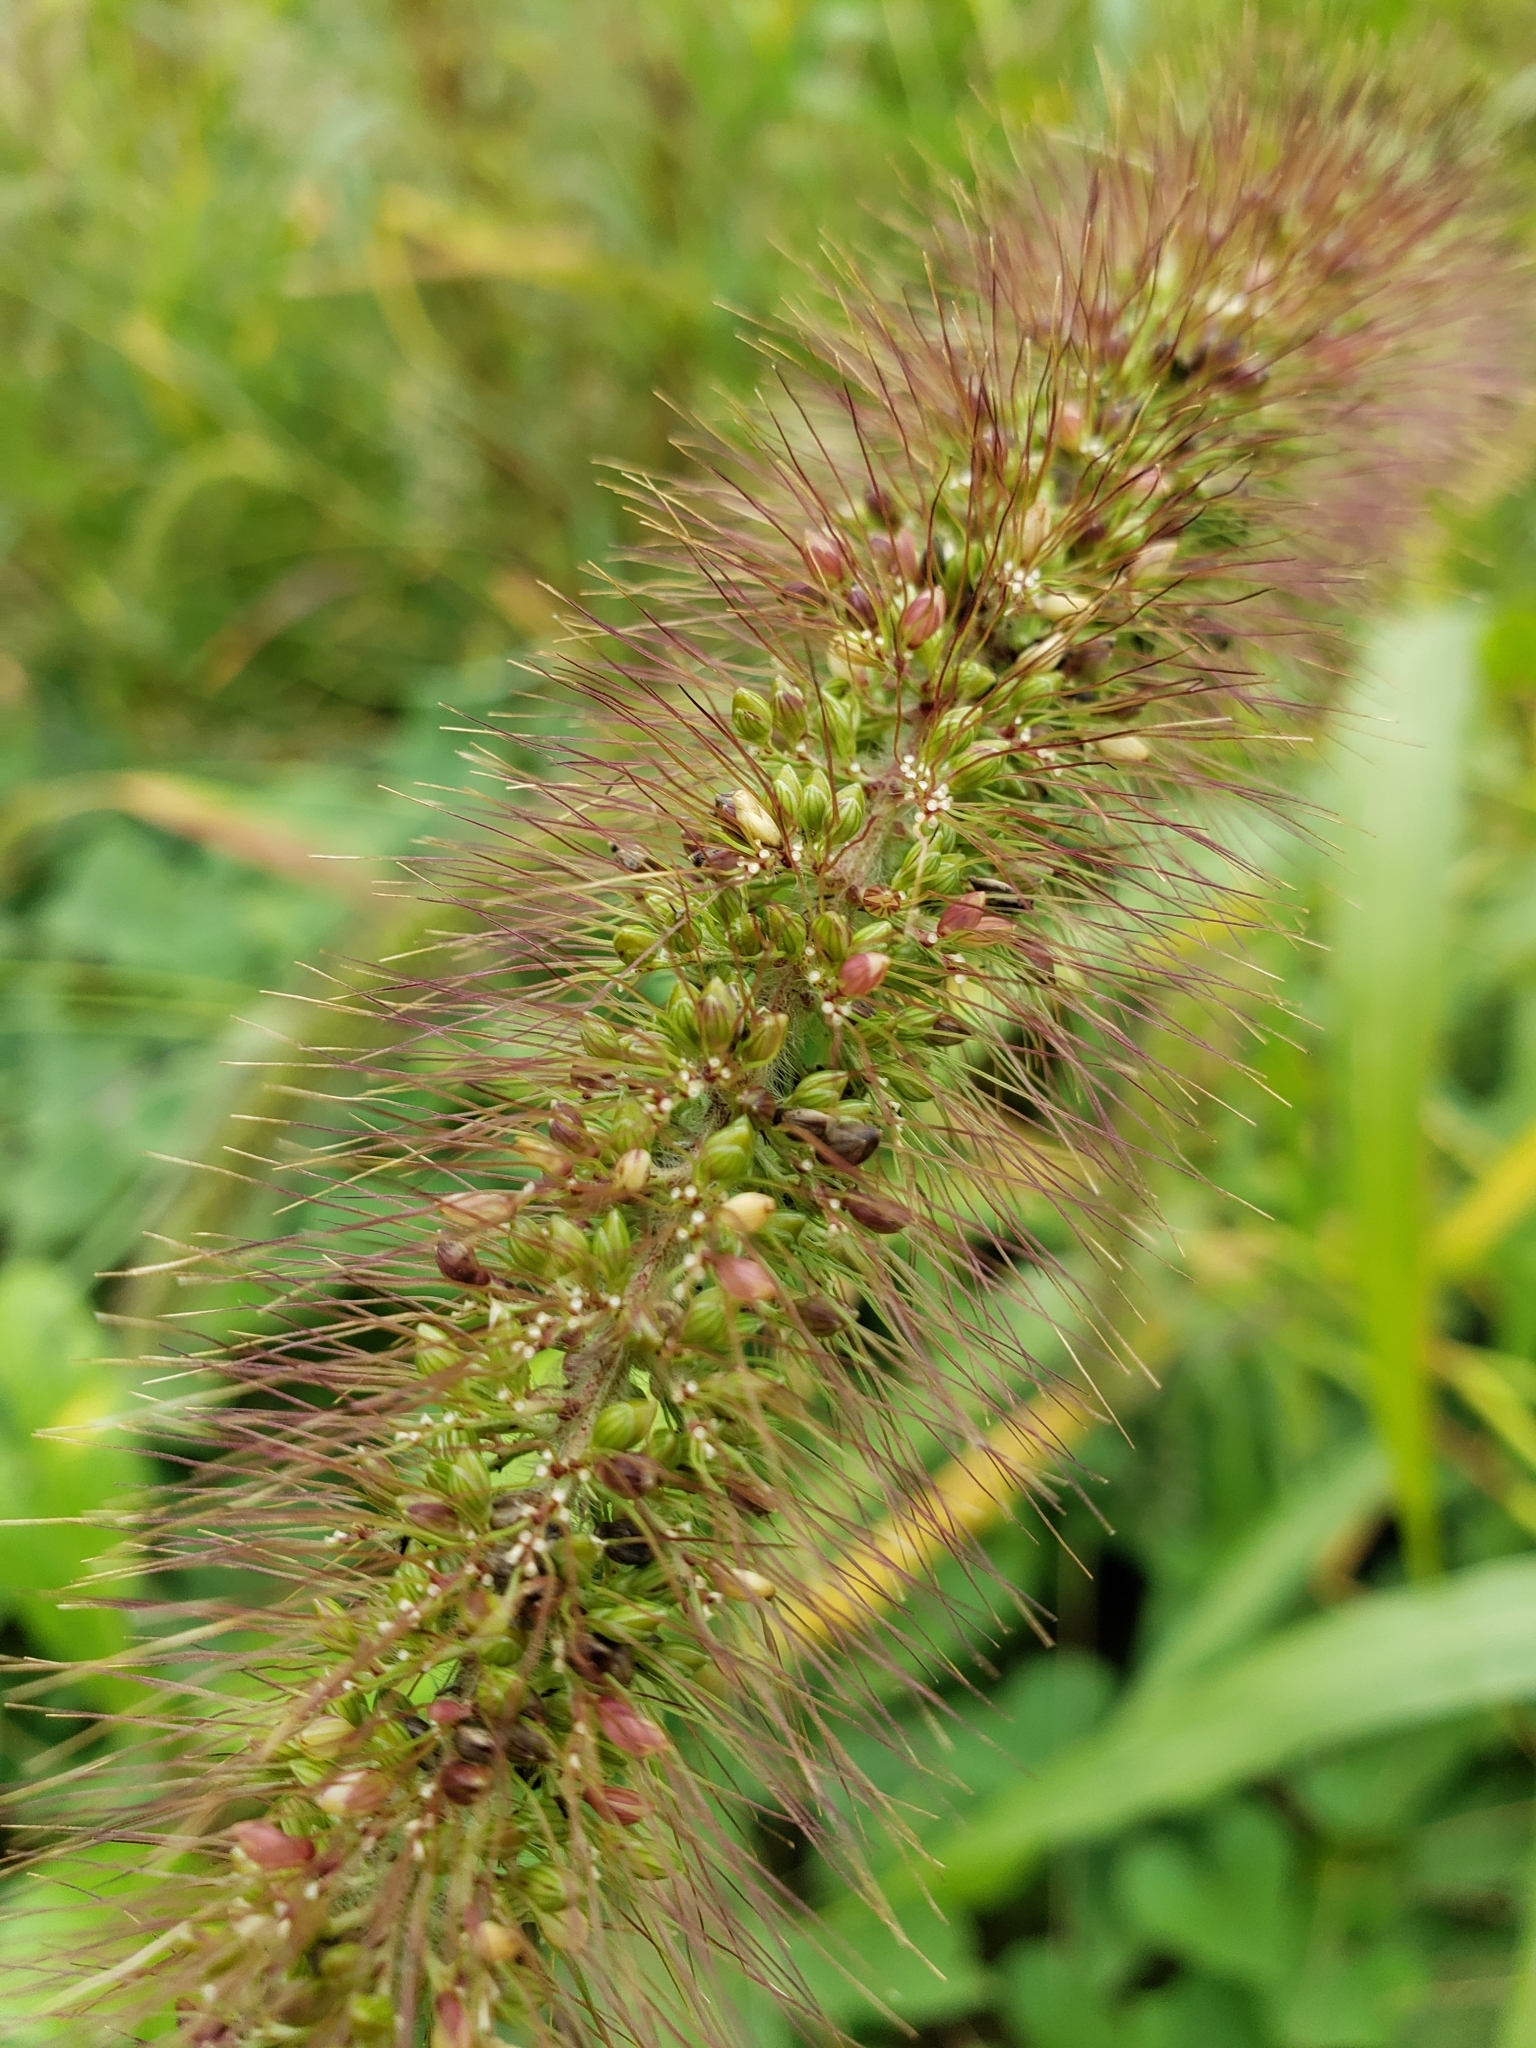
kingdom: Plantae
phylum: Tracheophyta
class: Liliopsida
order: Poales
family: Poaceae
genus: Setaria
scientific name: Setaria faberi
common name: Nodding bristle-grass
